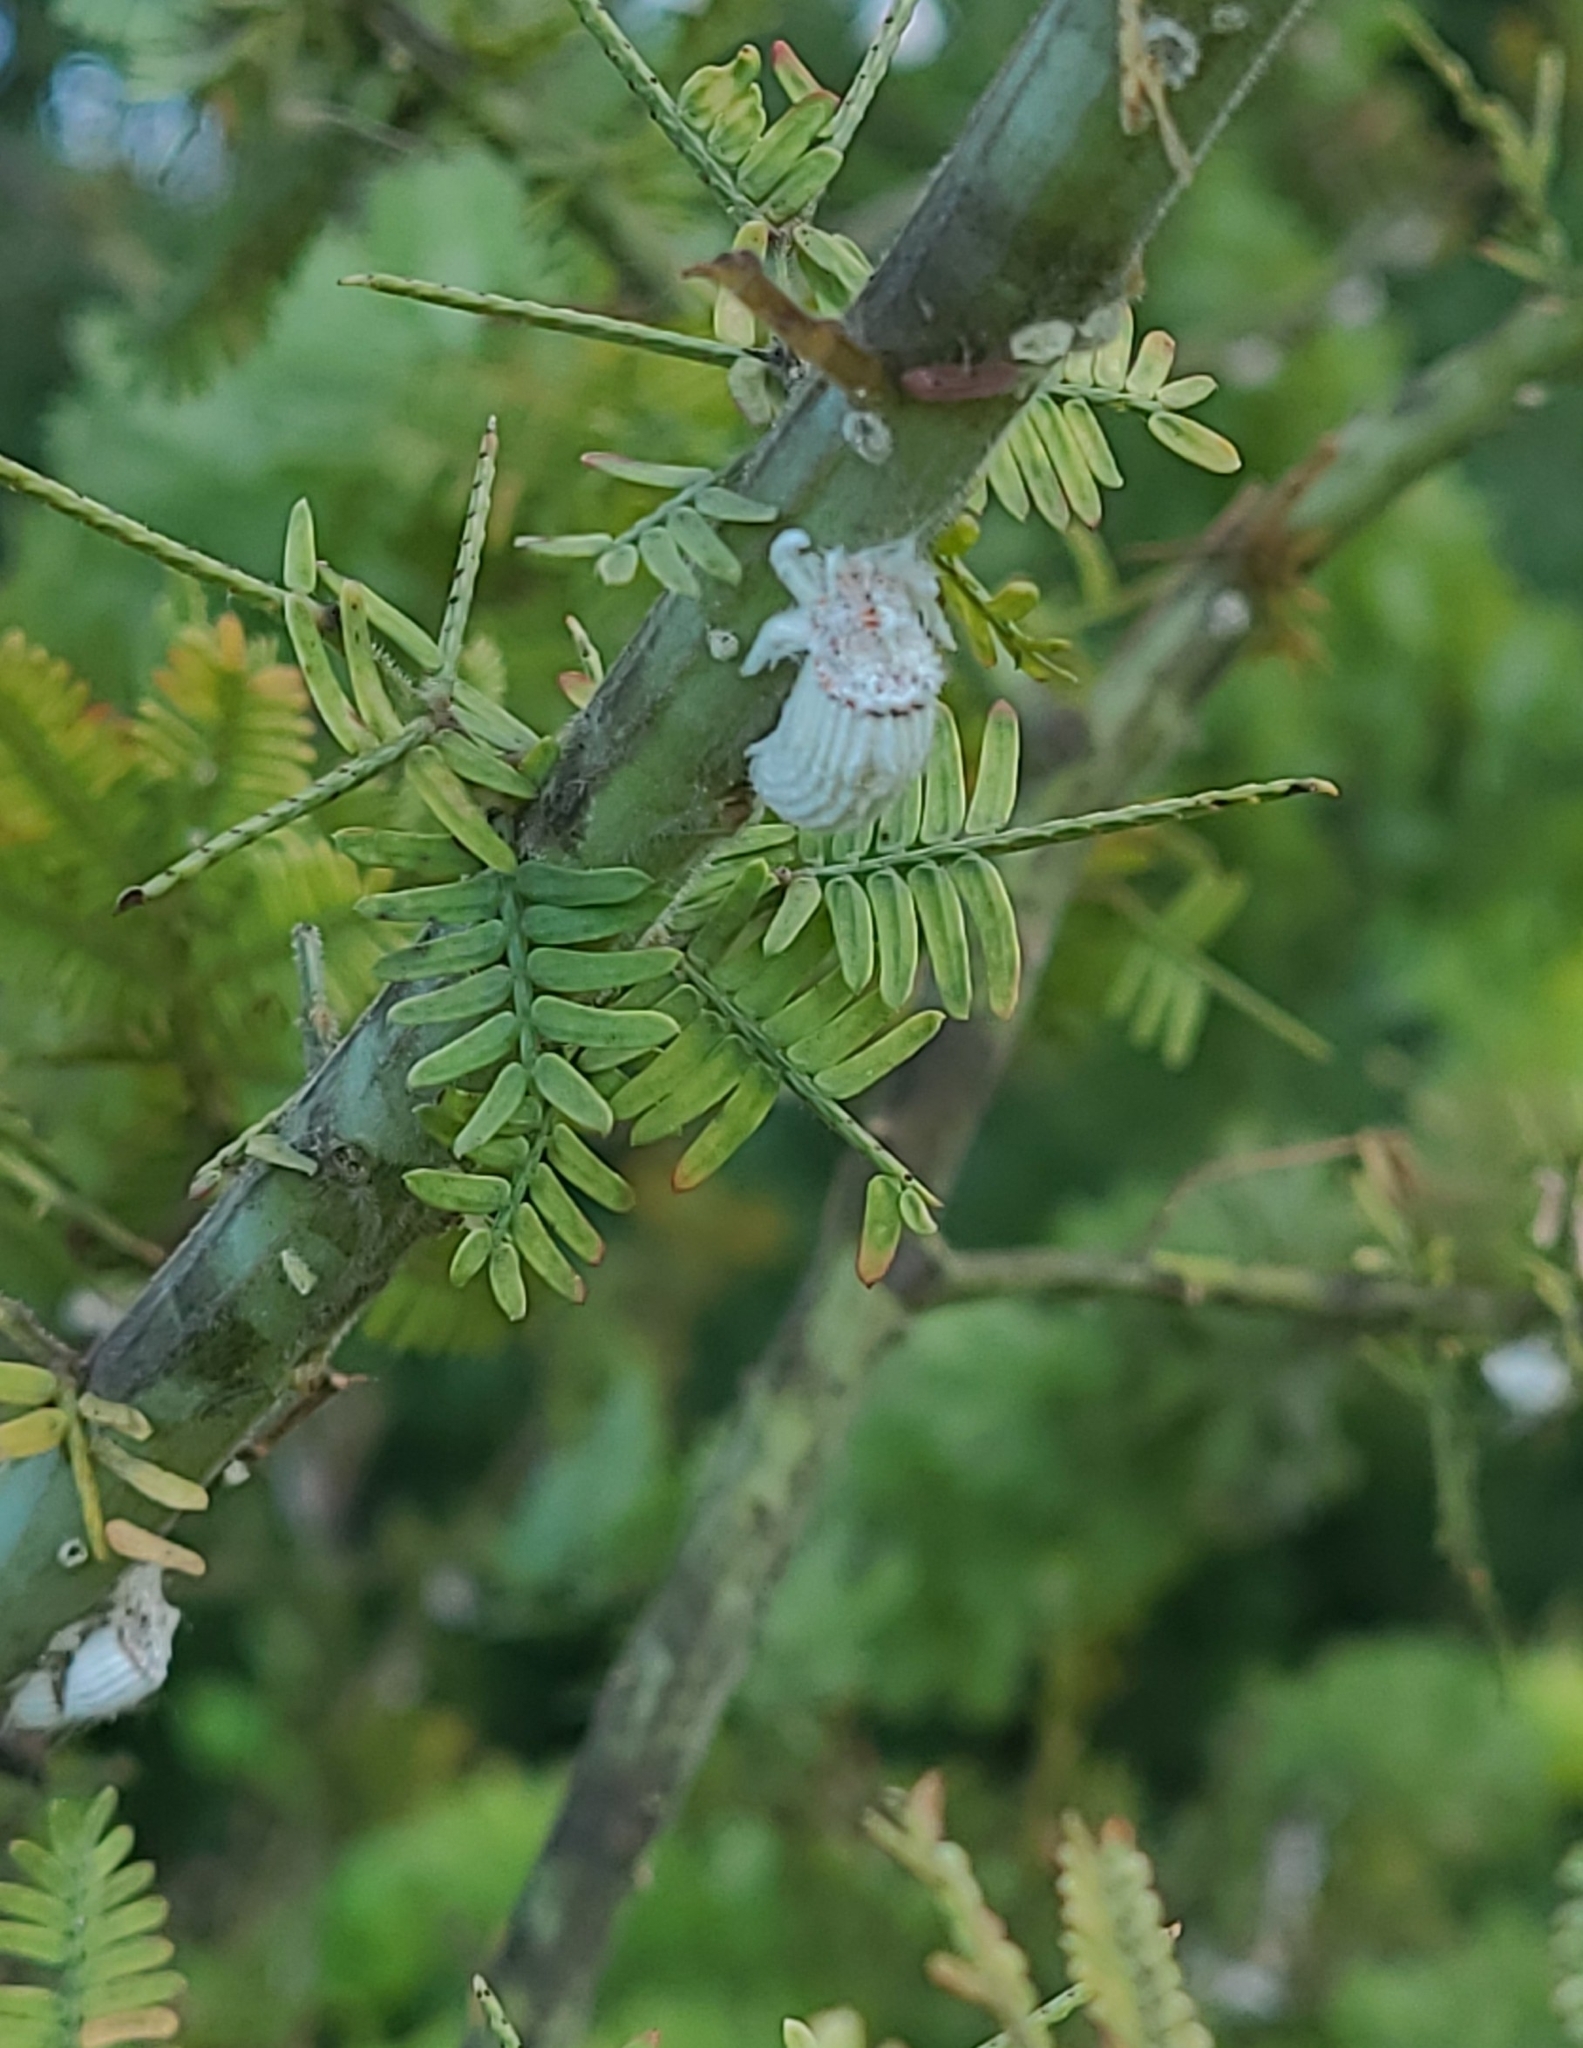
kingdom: Animalia
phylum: Arthropoda
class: Insecta
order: Hemiptera
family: Margarodidae
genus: Icerya
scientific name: Icerya purchasi
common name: Cottony cushion scale
